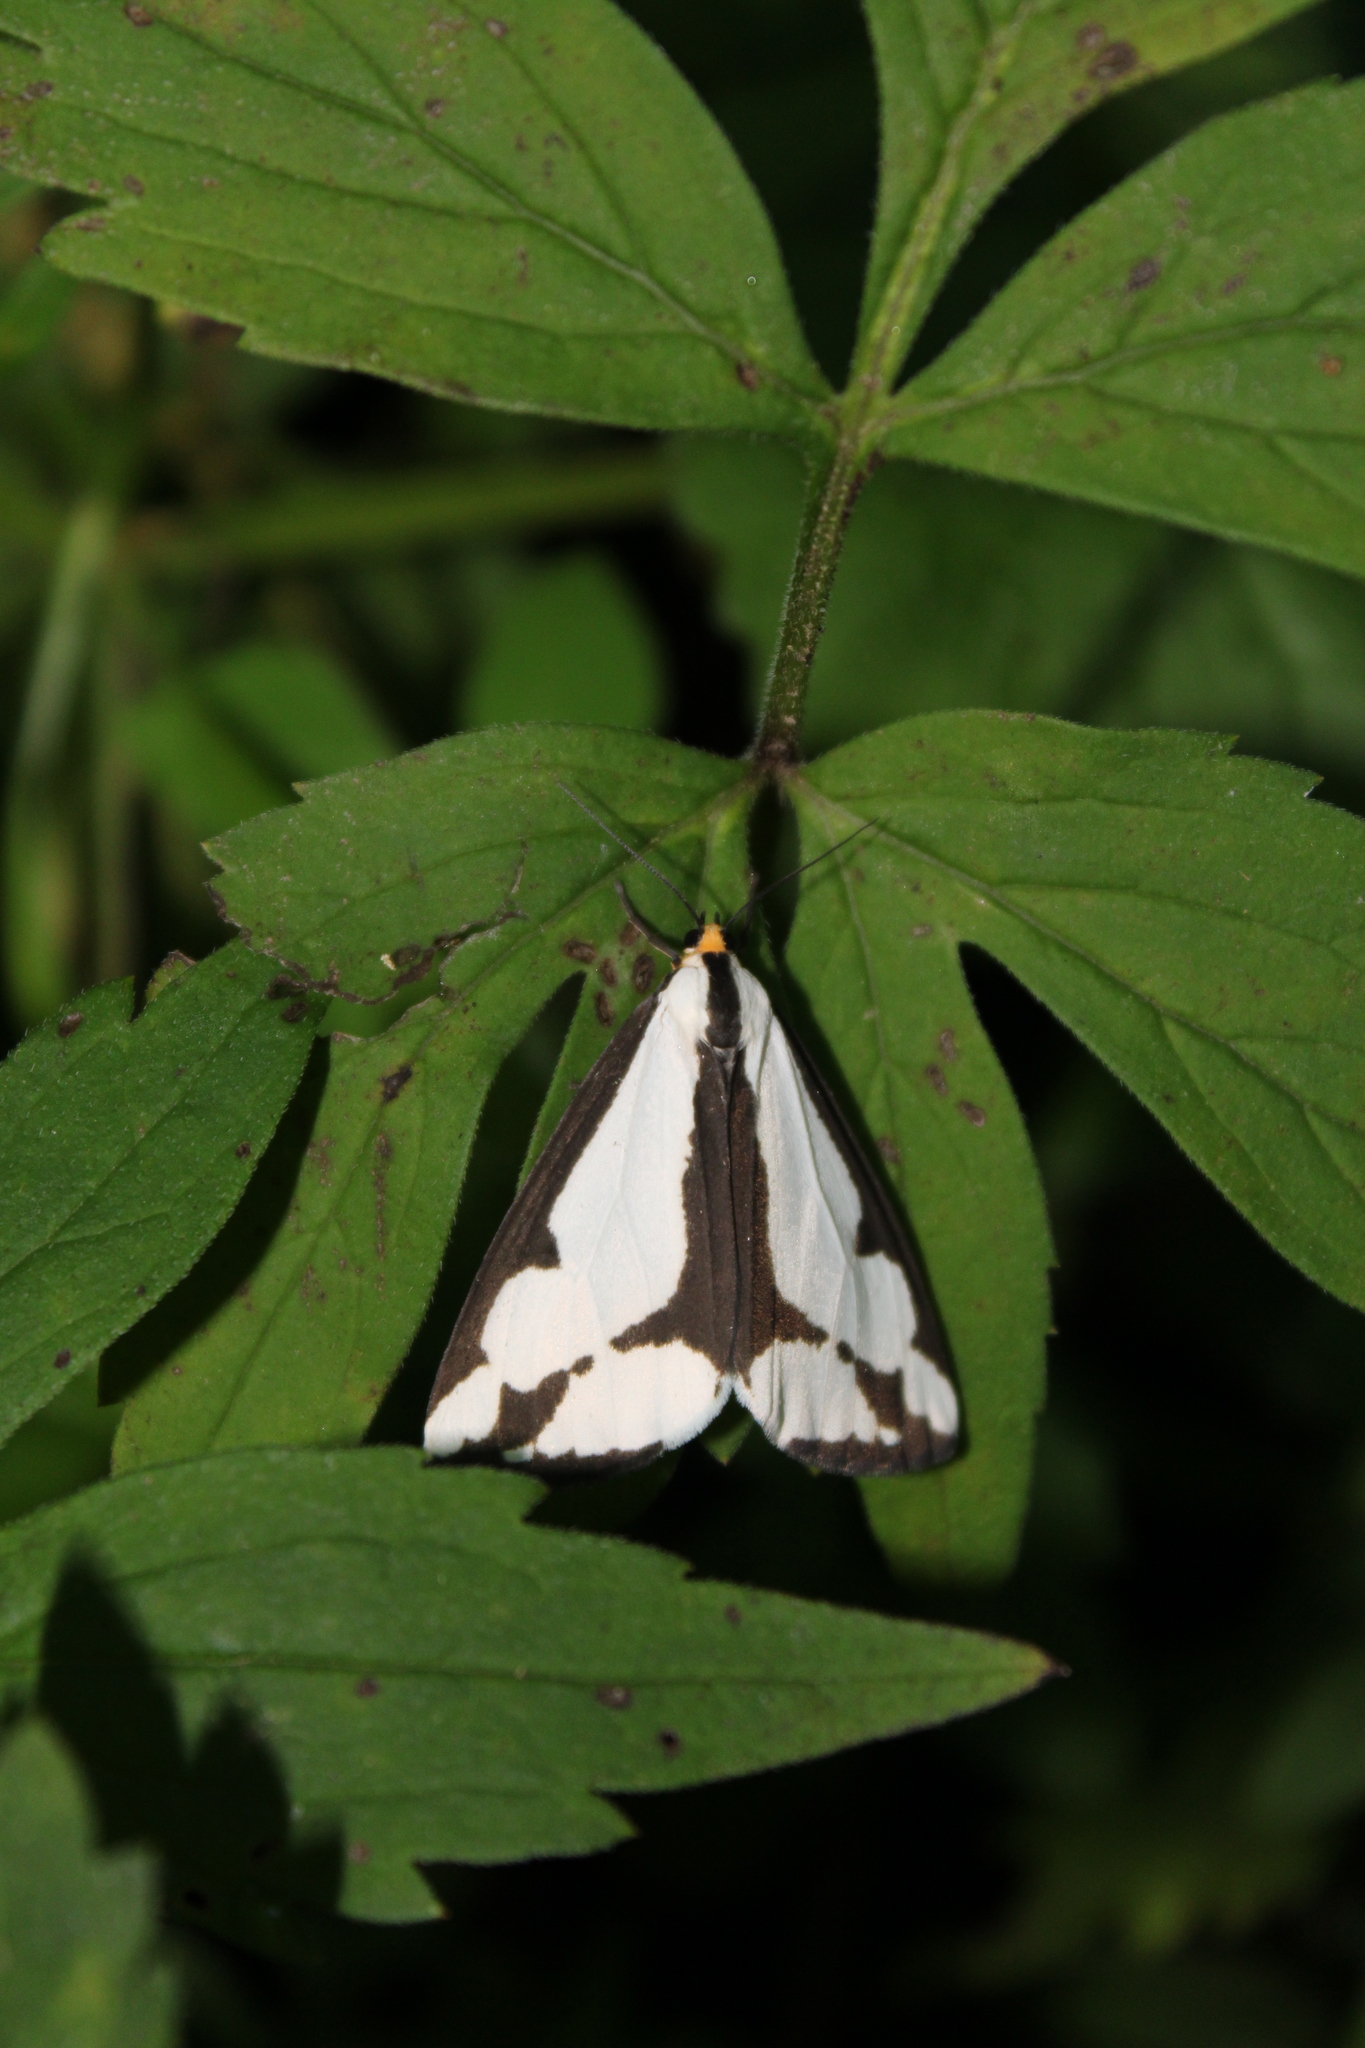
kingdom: Animalia
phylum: Arthropoda
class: Insecta
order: Lepidoptera
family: Erebidae
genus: Haploa
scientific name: Haploa lecontei
